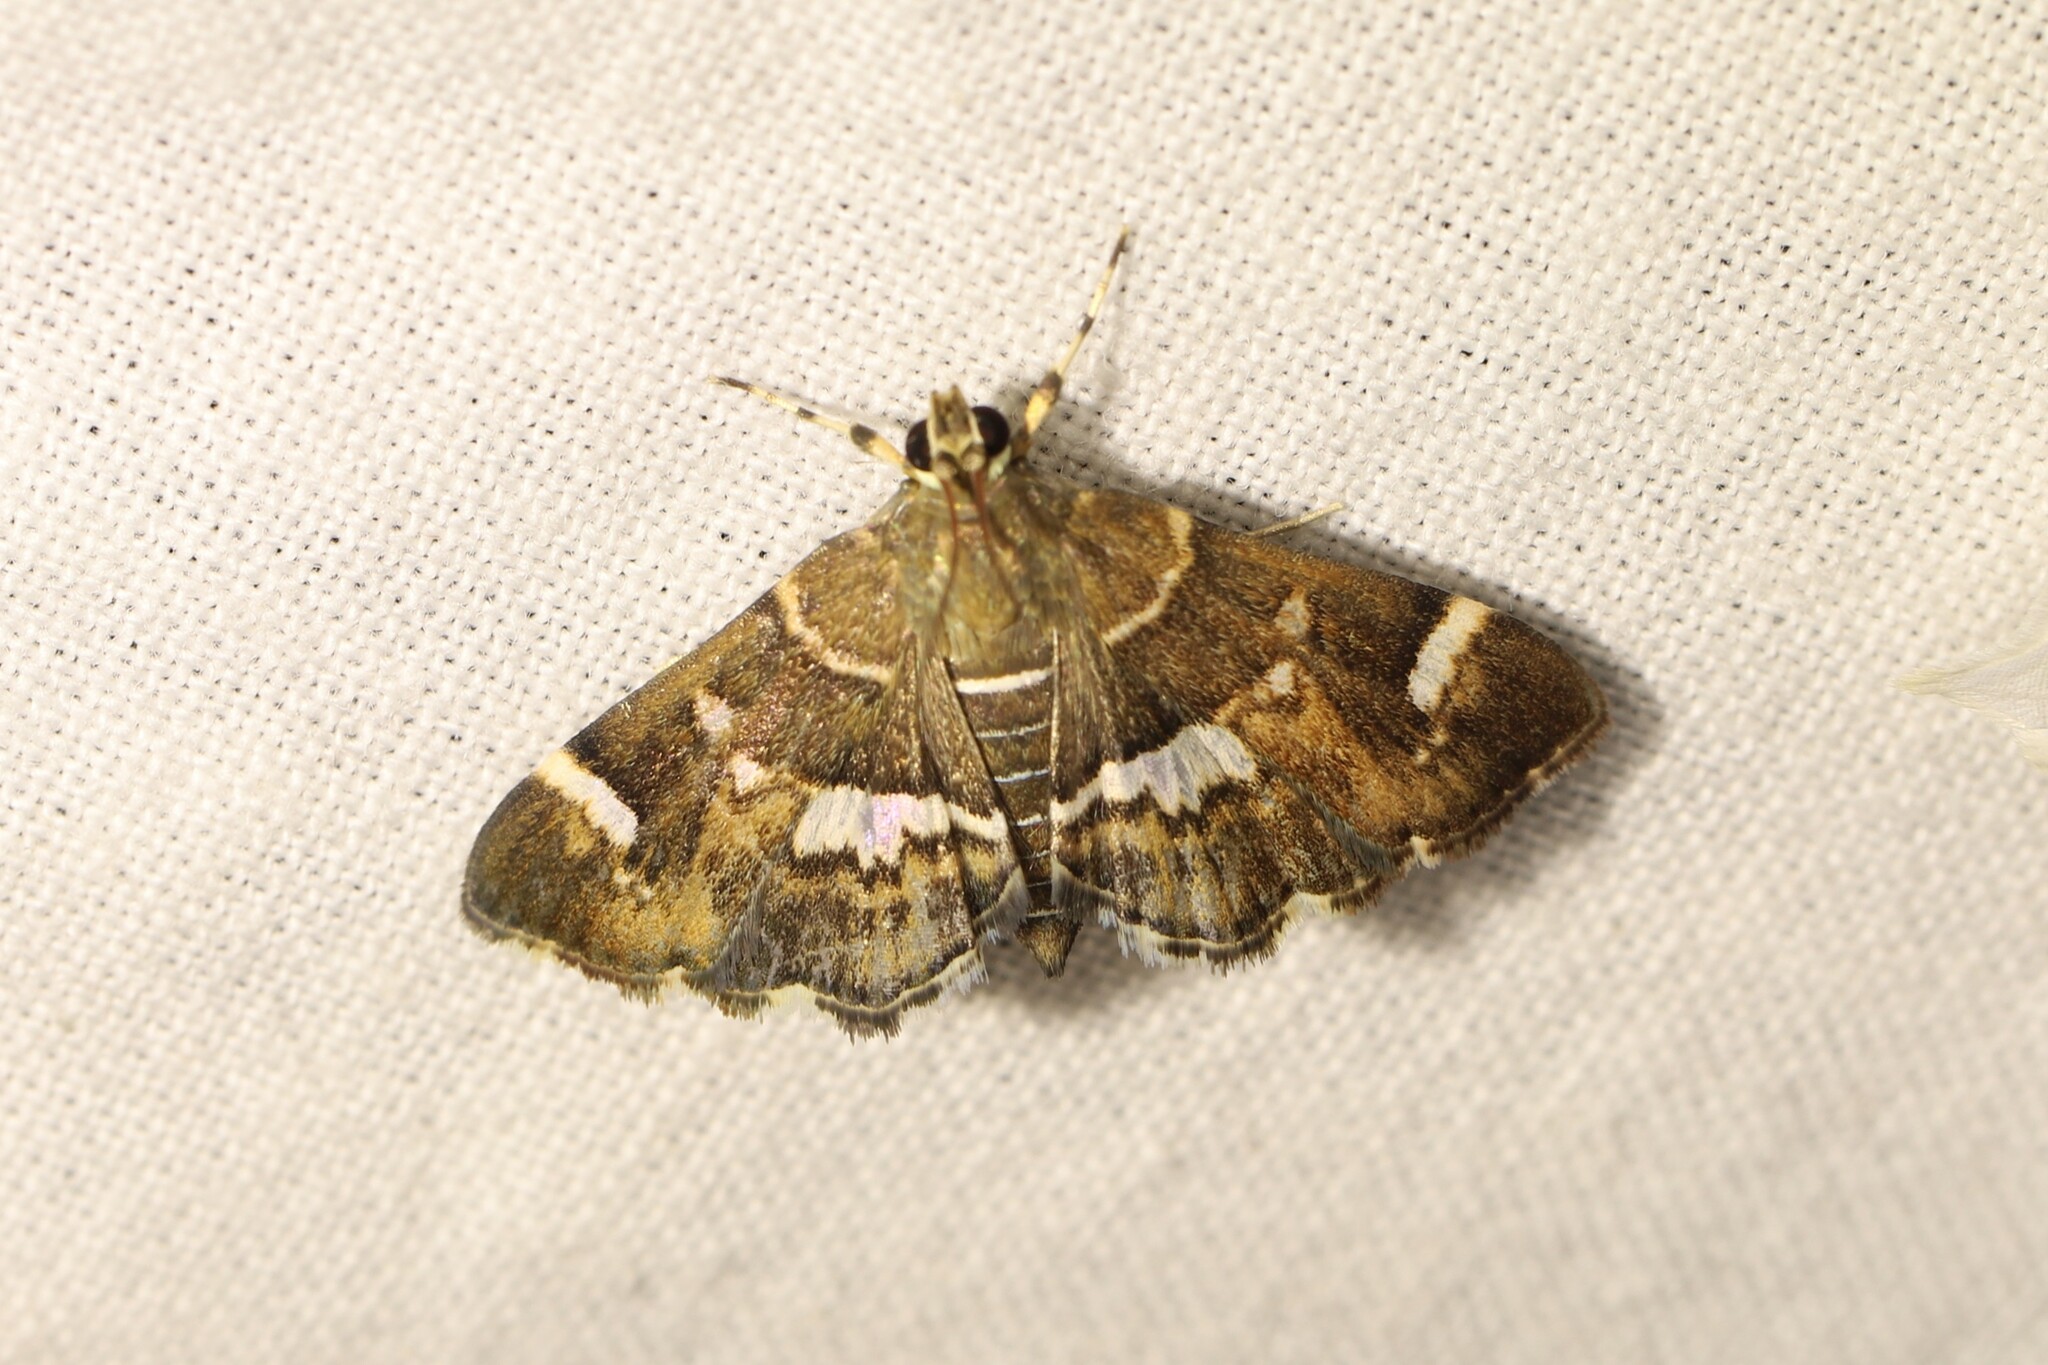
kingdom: Animalia
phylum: Arthropoda
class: Insecta
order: Lepidoptera
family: Crambidae
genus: Hymenia
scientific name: Hymenia perspectalis
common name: Spotted beet webworm
